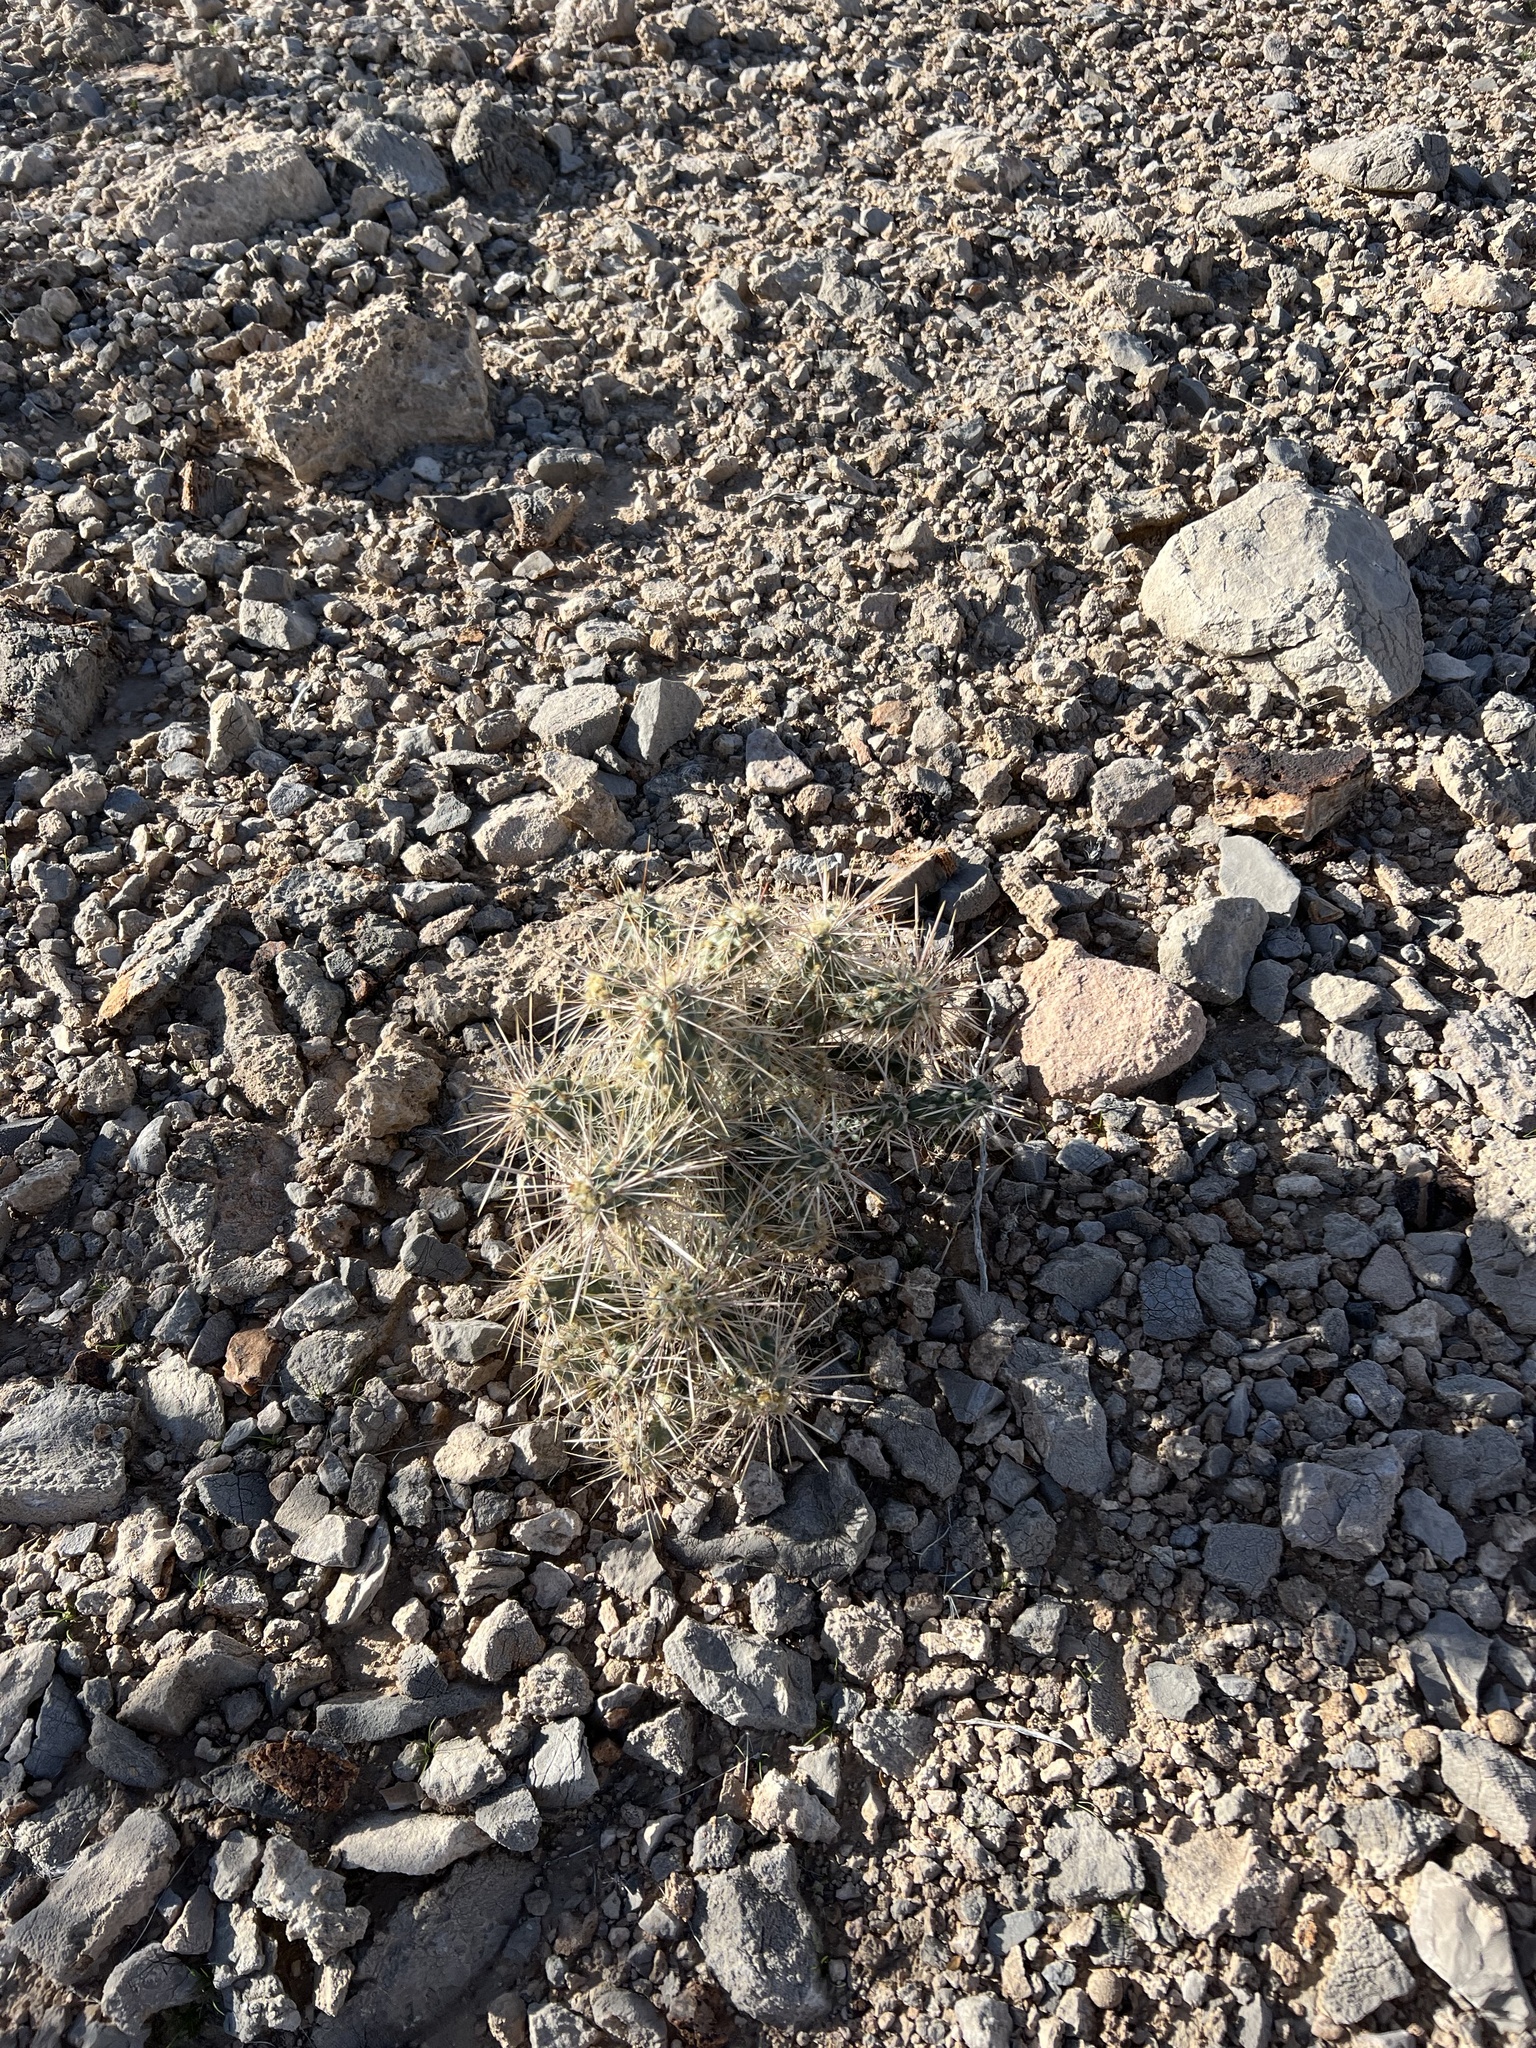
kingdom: Plantae
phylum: Tracheophyta
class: Magnoliopsida
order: Caryophyllales
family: Cactaceae
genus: Cylindropuntia
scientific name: Cylindropuntia echinocarpa
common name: Ground cholla
